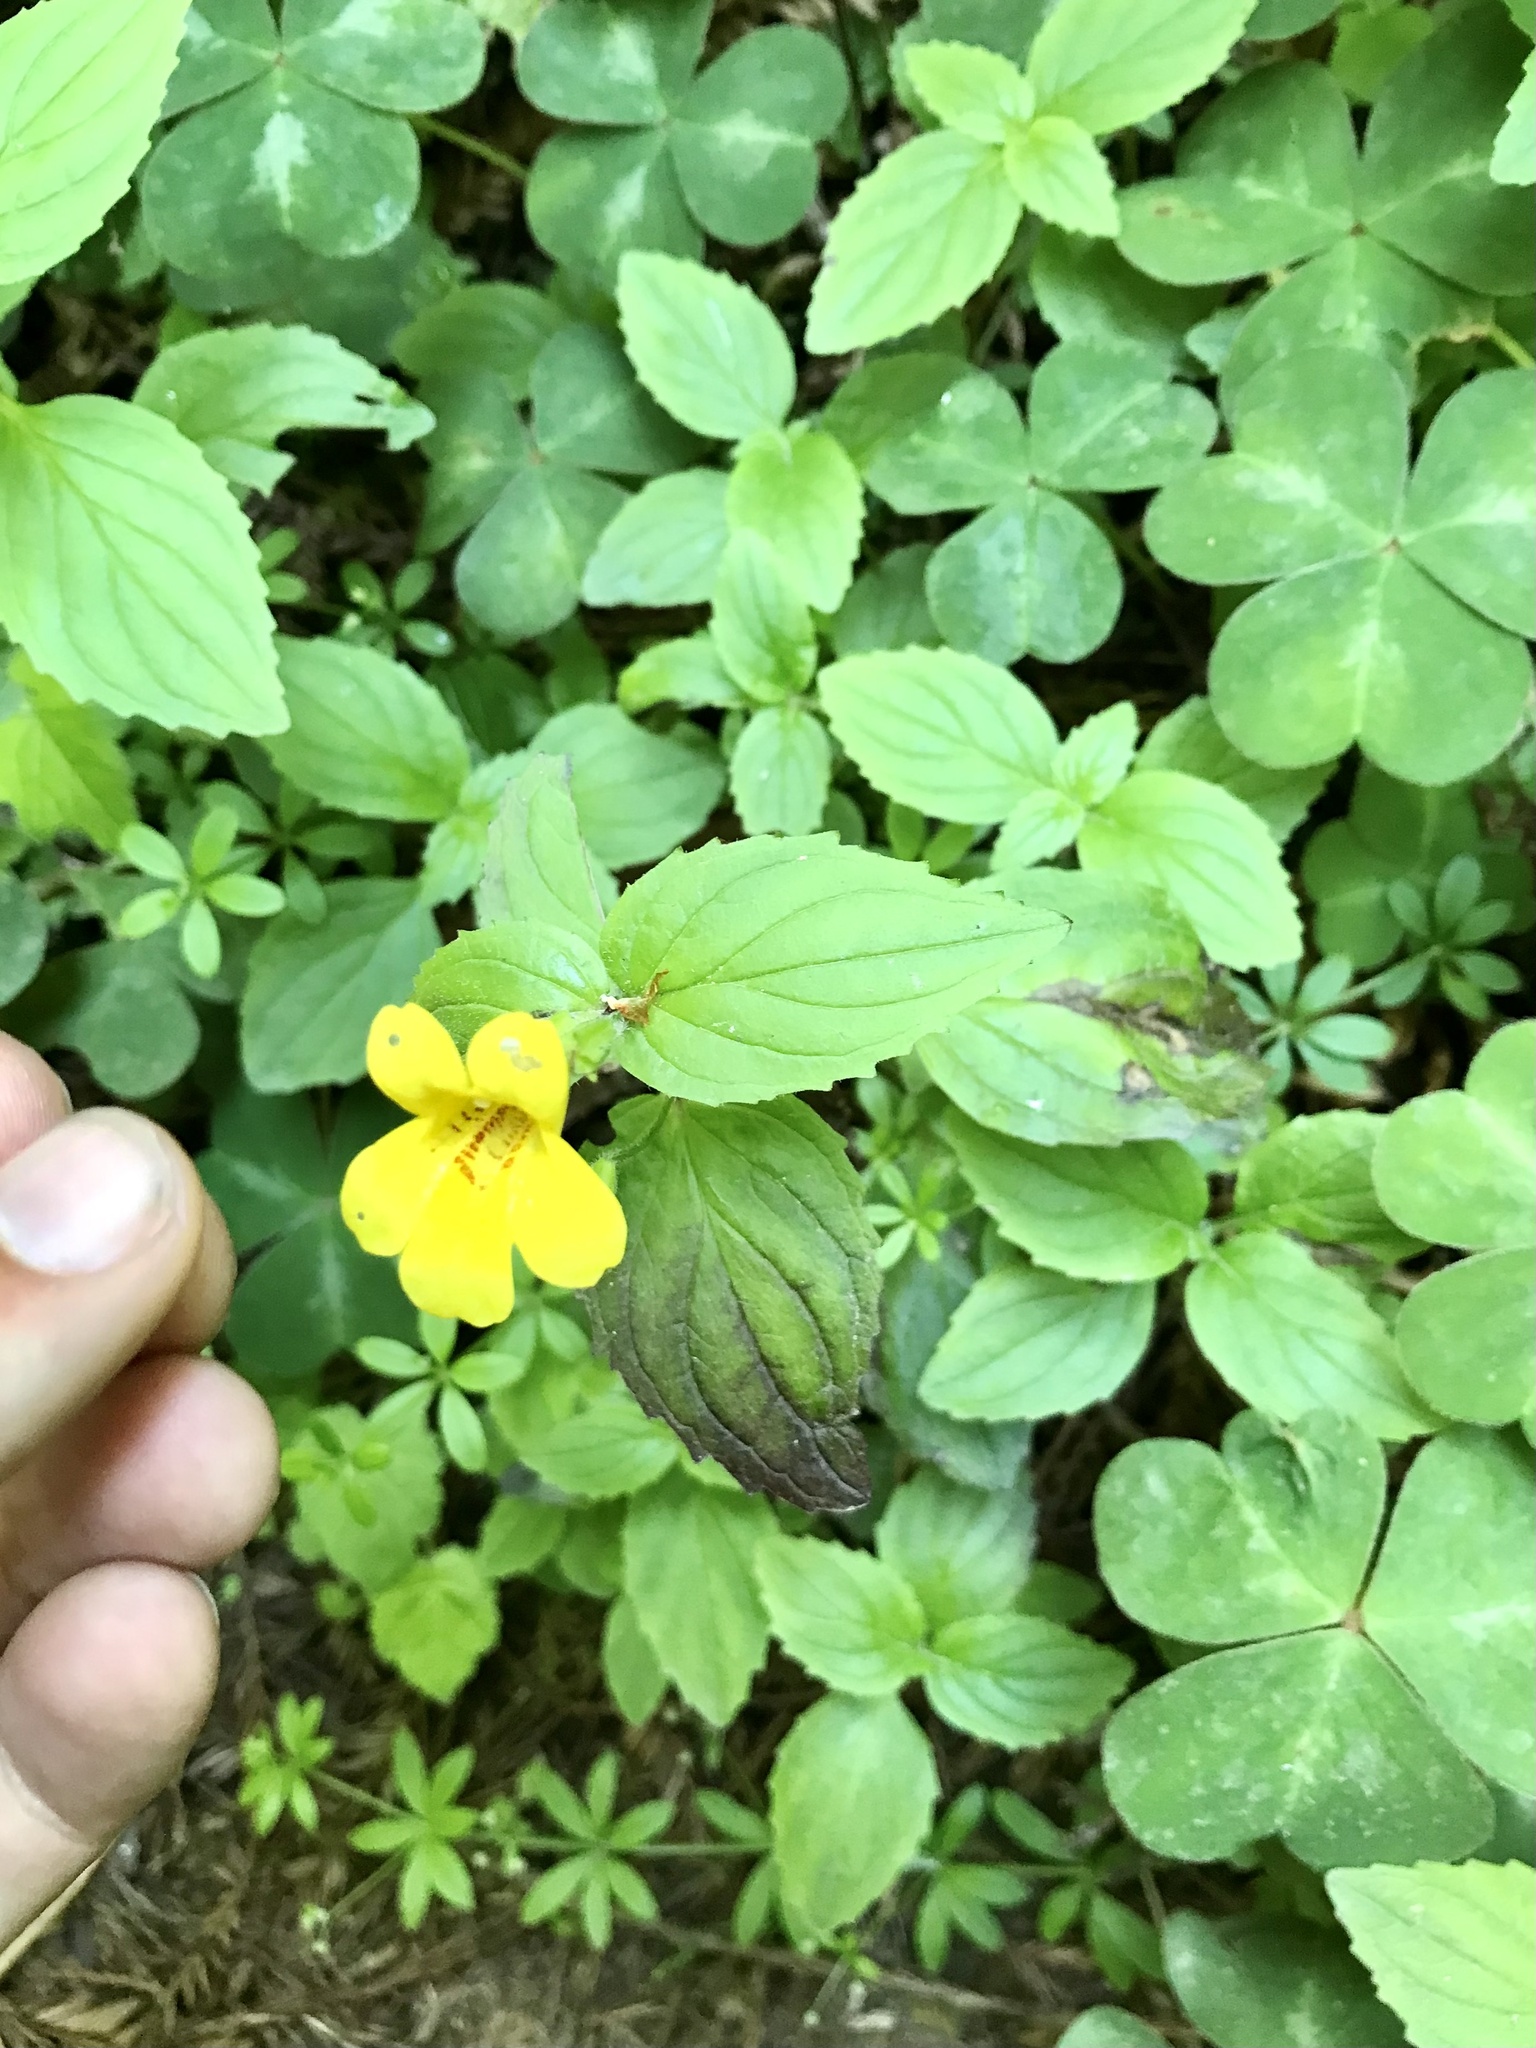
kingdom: Plantae
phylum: Tracheophyta
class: Magnoliopsida
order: Lamiales
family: Phrymaceae
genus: Erythranthe
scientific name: Erythranthe dentata
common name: Coastal monkeyflower
